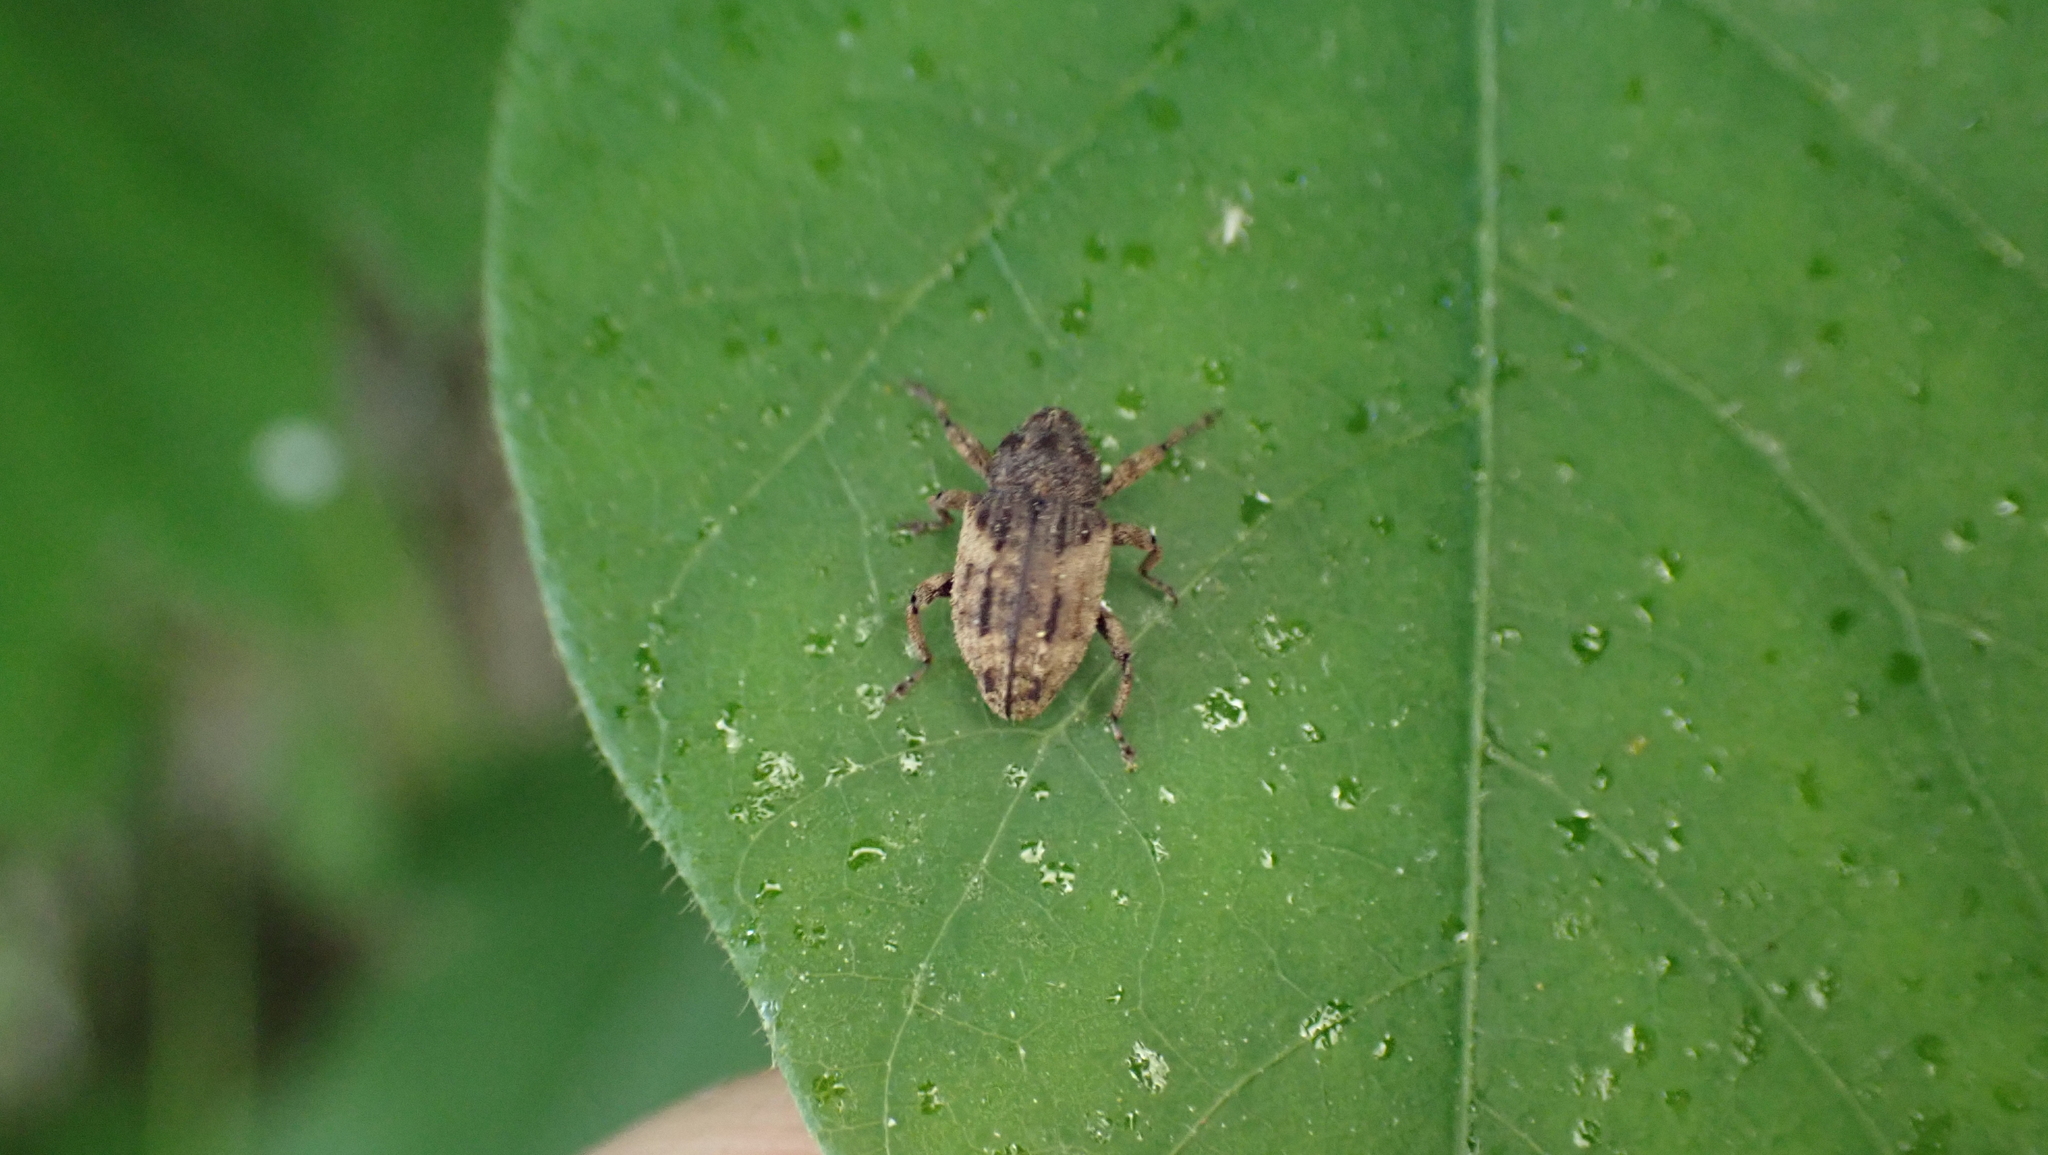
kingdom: Animalia
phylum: Arthropoda
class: Insecta
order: Coleoptera
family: Curculionidae
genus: Cryptorhynchus
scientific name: Cryptorhynchus fuscatus
